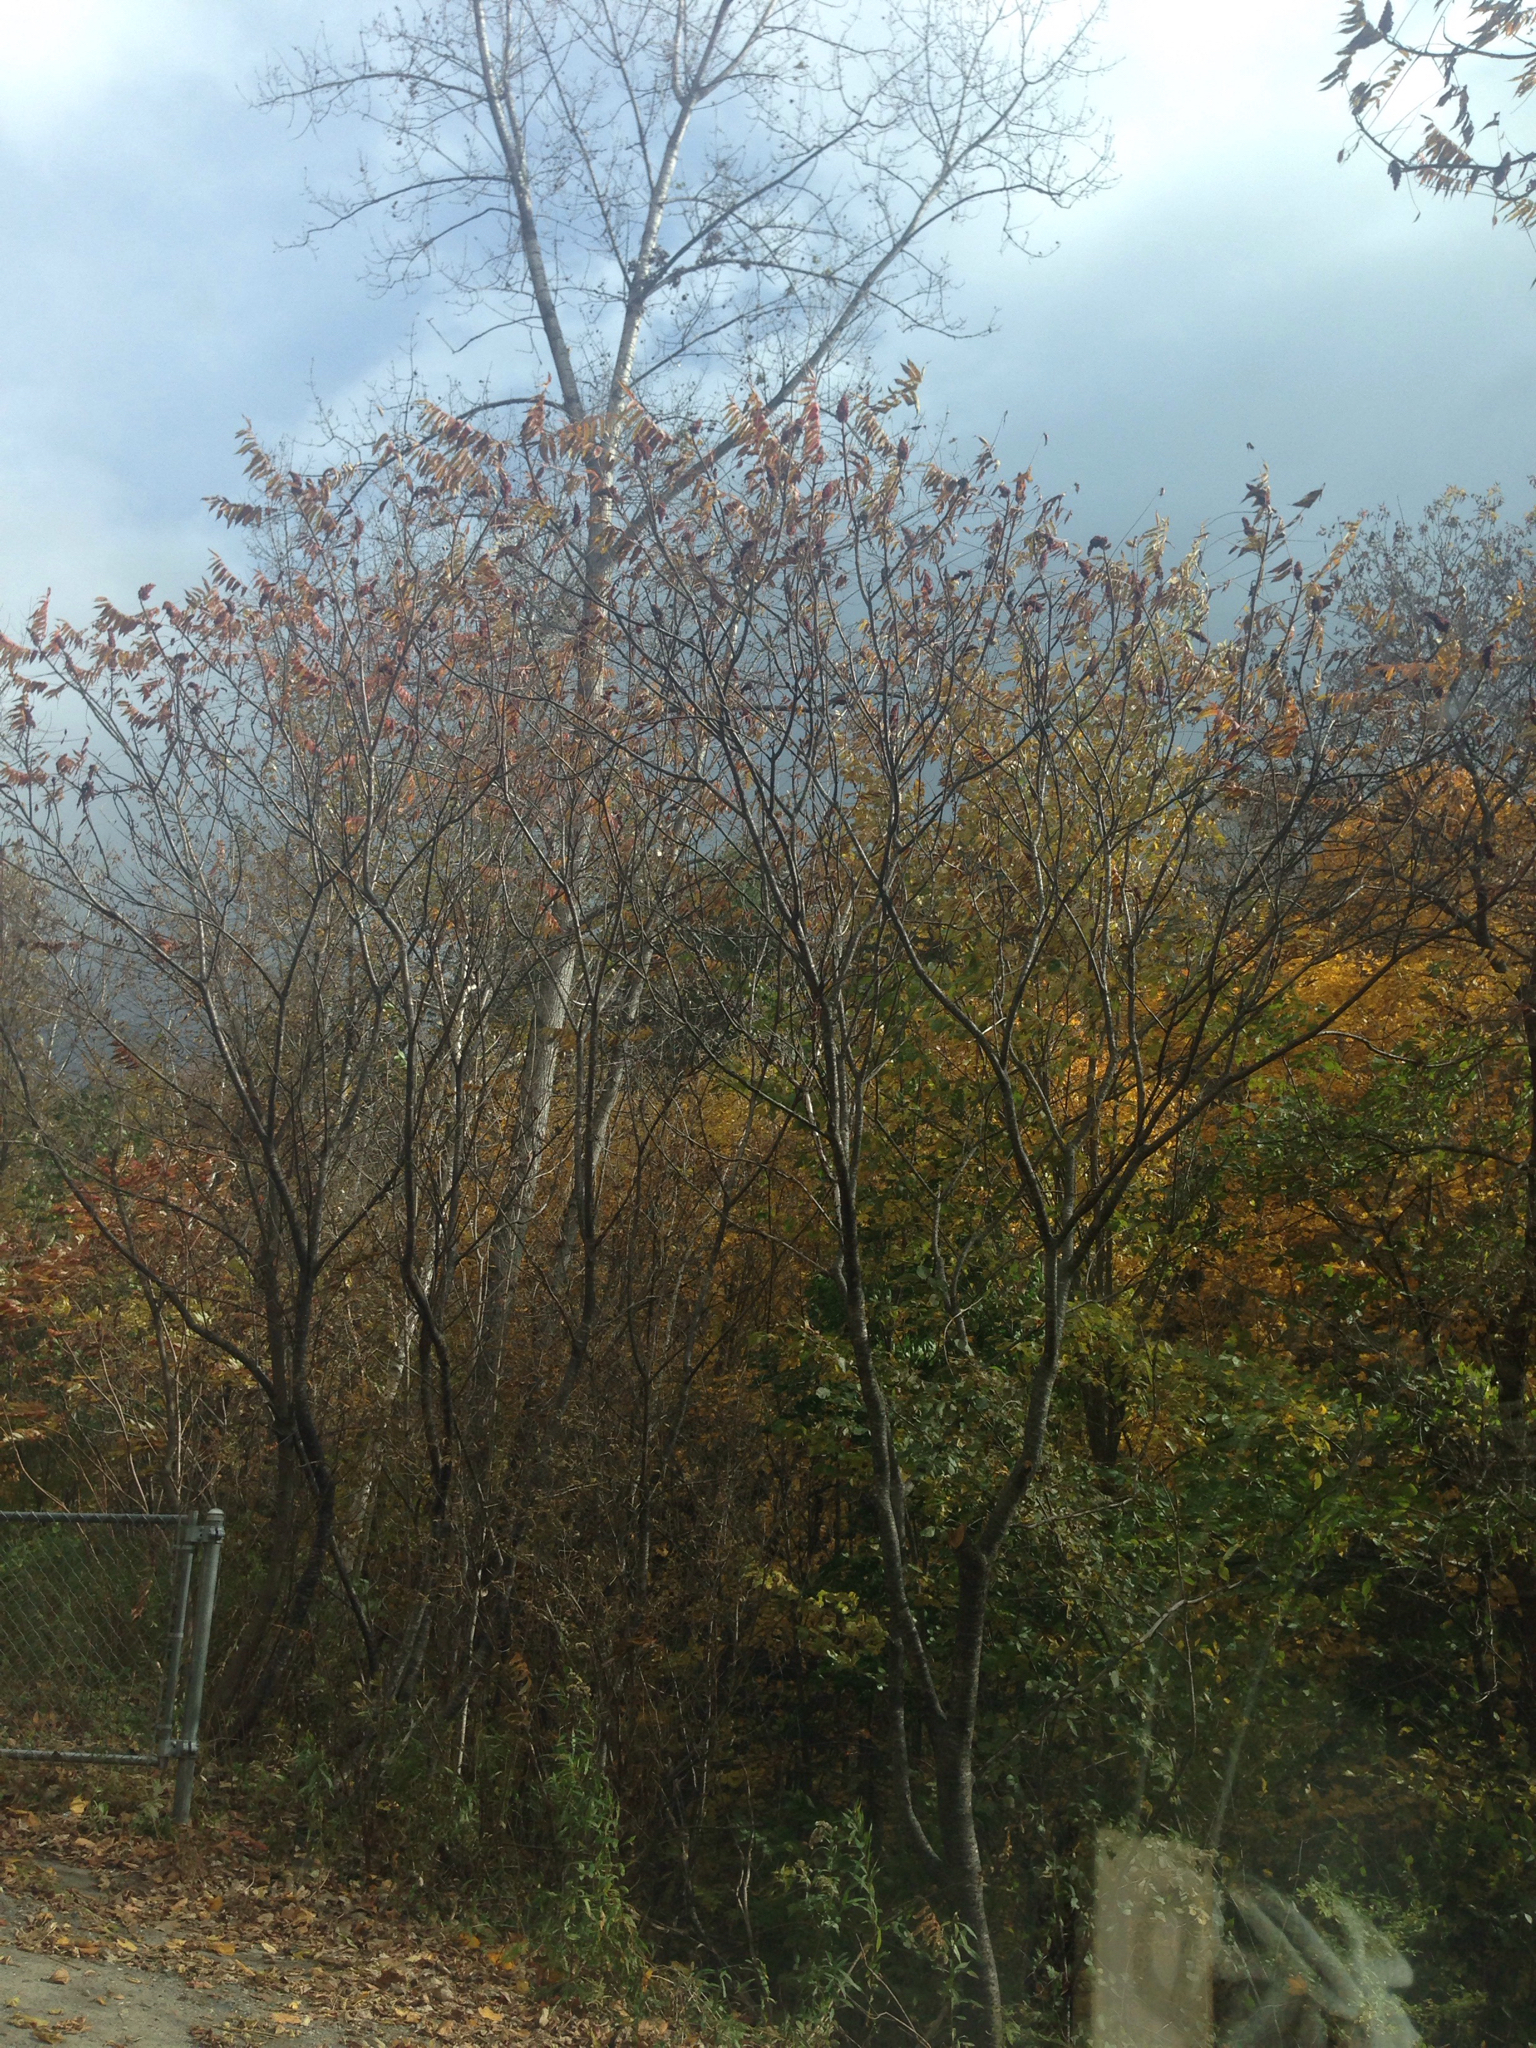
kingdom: Plantae
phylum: Tracheophyta
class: Magnoliopsida
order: Sapindales
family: Anacardiaceae
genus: Rhus
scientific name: Rhus typhina
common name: Staghorn sumac
